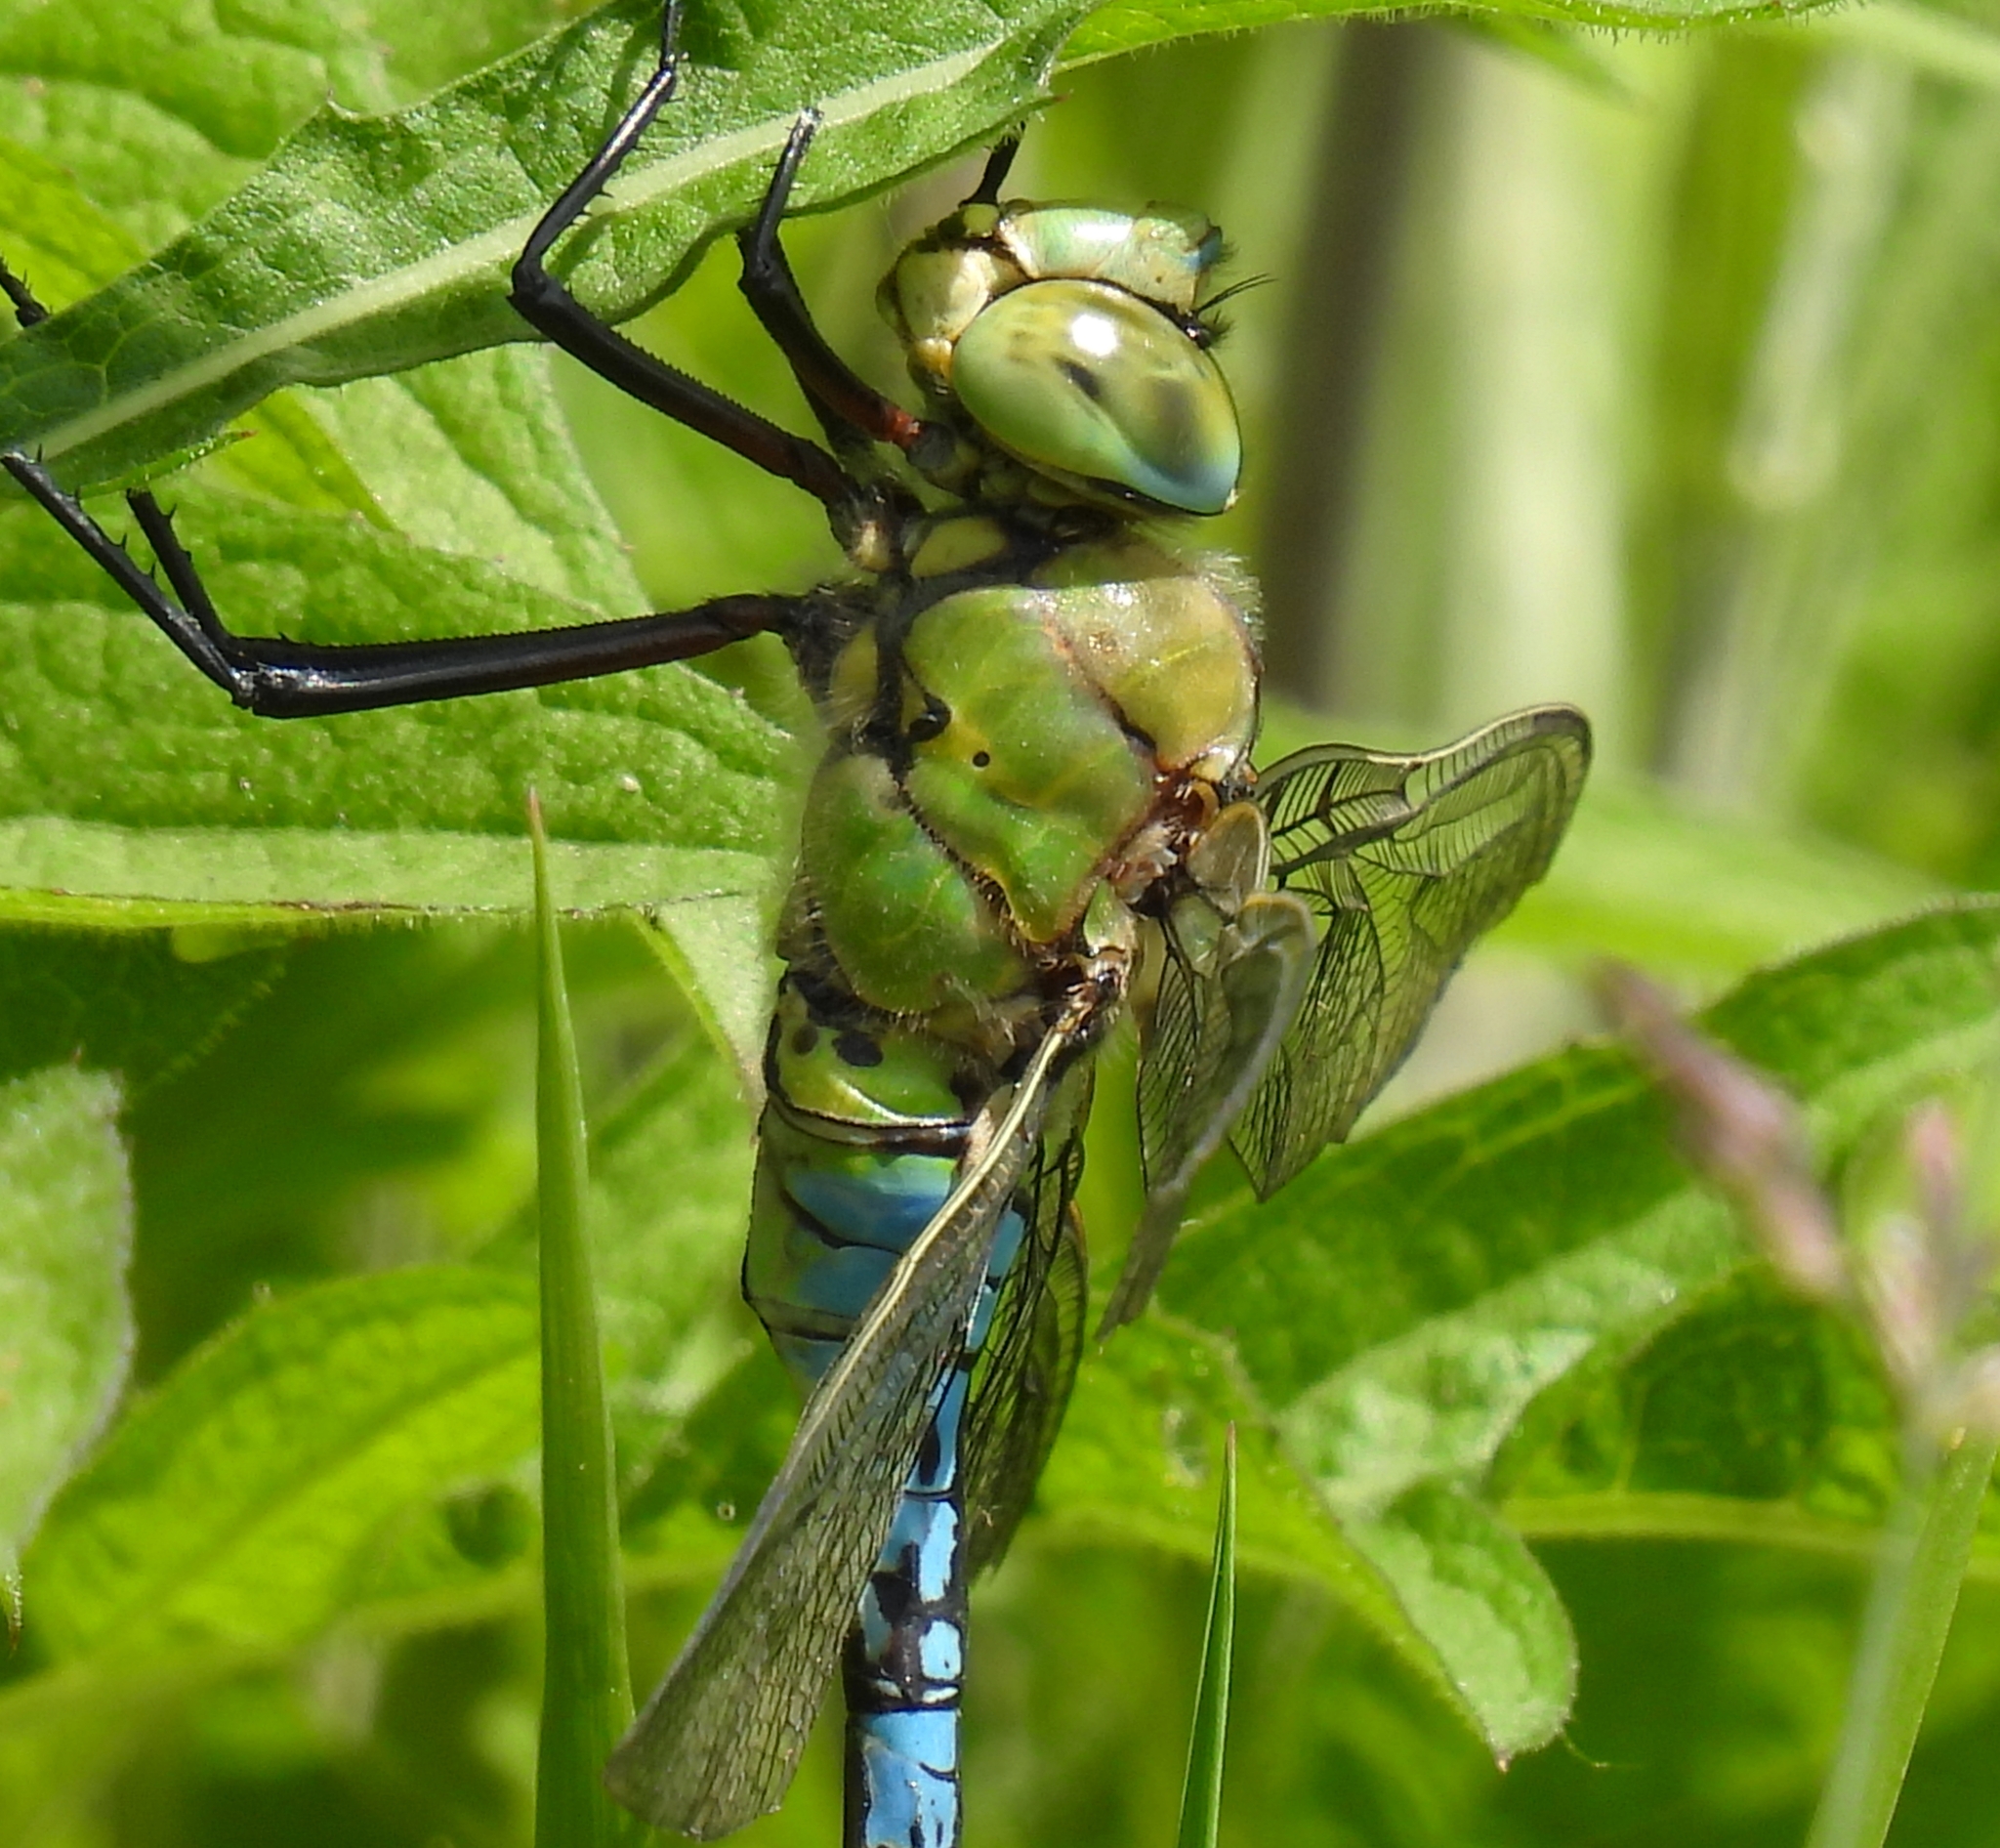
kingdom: Animalia
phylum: Arthropoda
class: Insecta
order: Odonata
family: Aeshnidae
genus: Anax
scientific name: Anax imperator
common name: Emperor dragonfly
